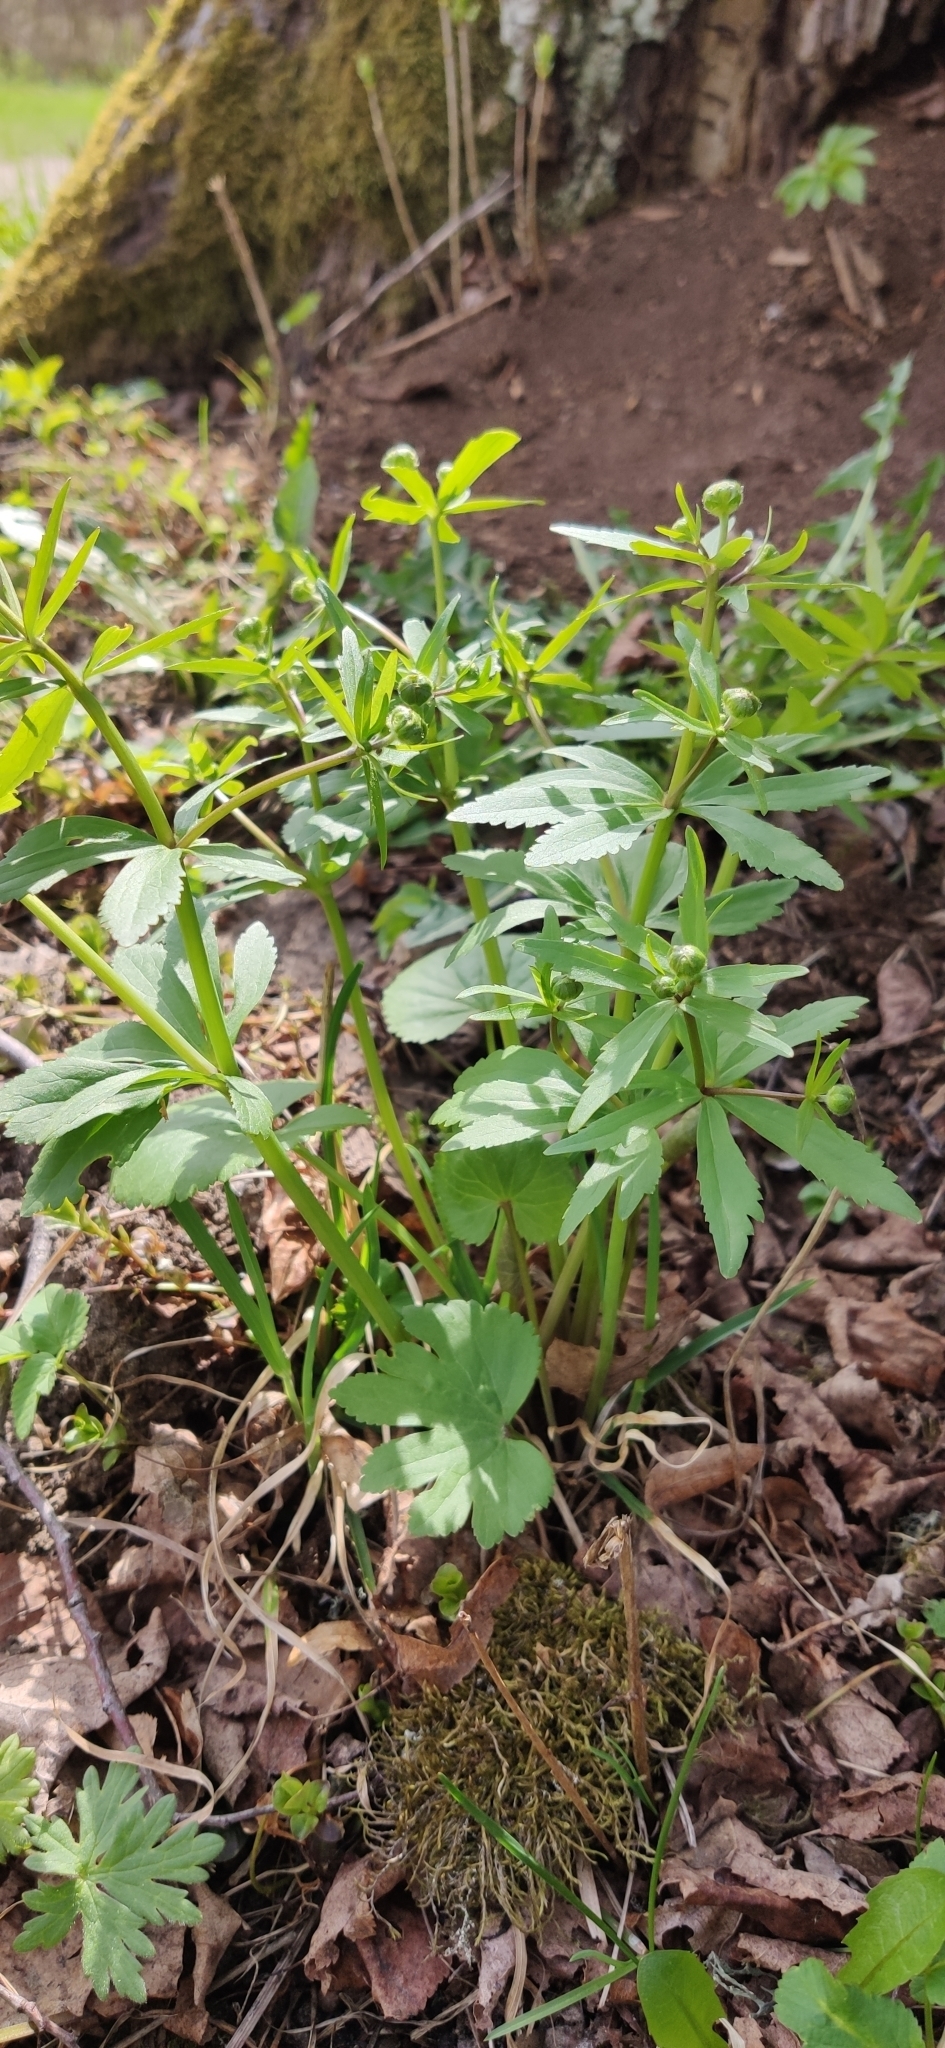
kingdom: Plantae
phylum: Tracheophyta
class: Magnoliopsida
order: Ranunculales
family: Ranunculaceae
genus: Ranunculus
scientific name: Ranunculus cassubicus
